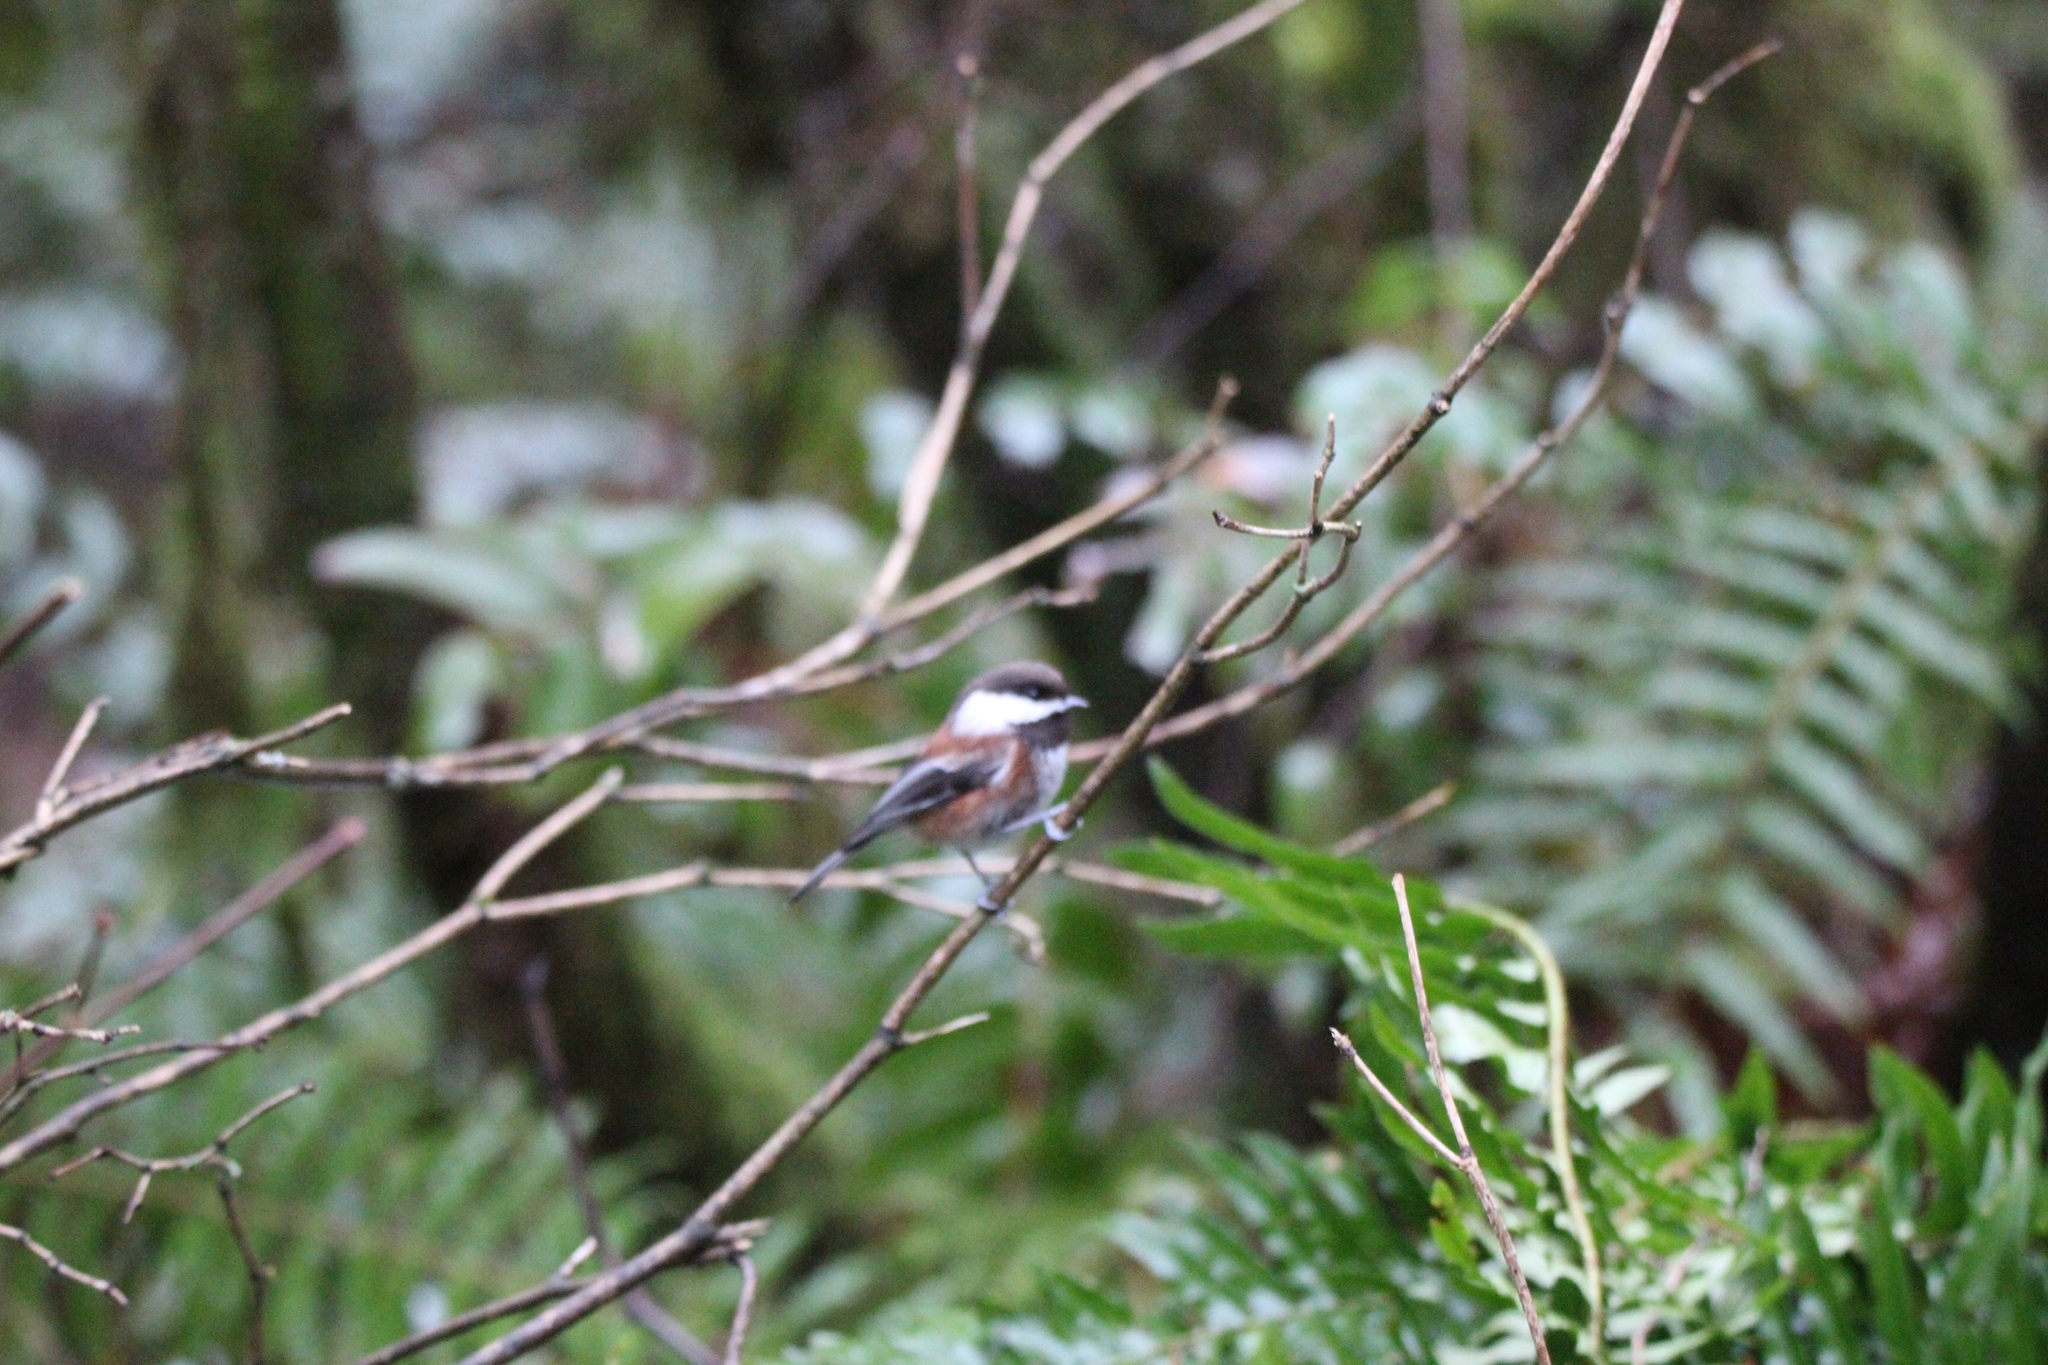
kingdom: Animalia
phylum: Chordata
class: Aves
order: Passeriformes
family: Paridae
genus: Poecile
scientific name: Poecile rufescens
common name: Chestnut-backed chickadee
